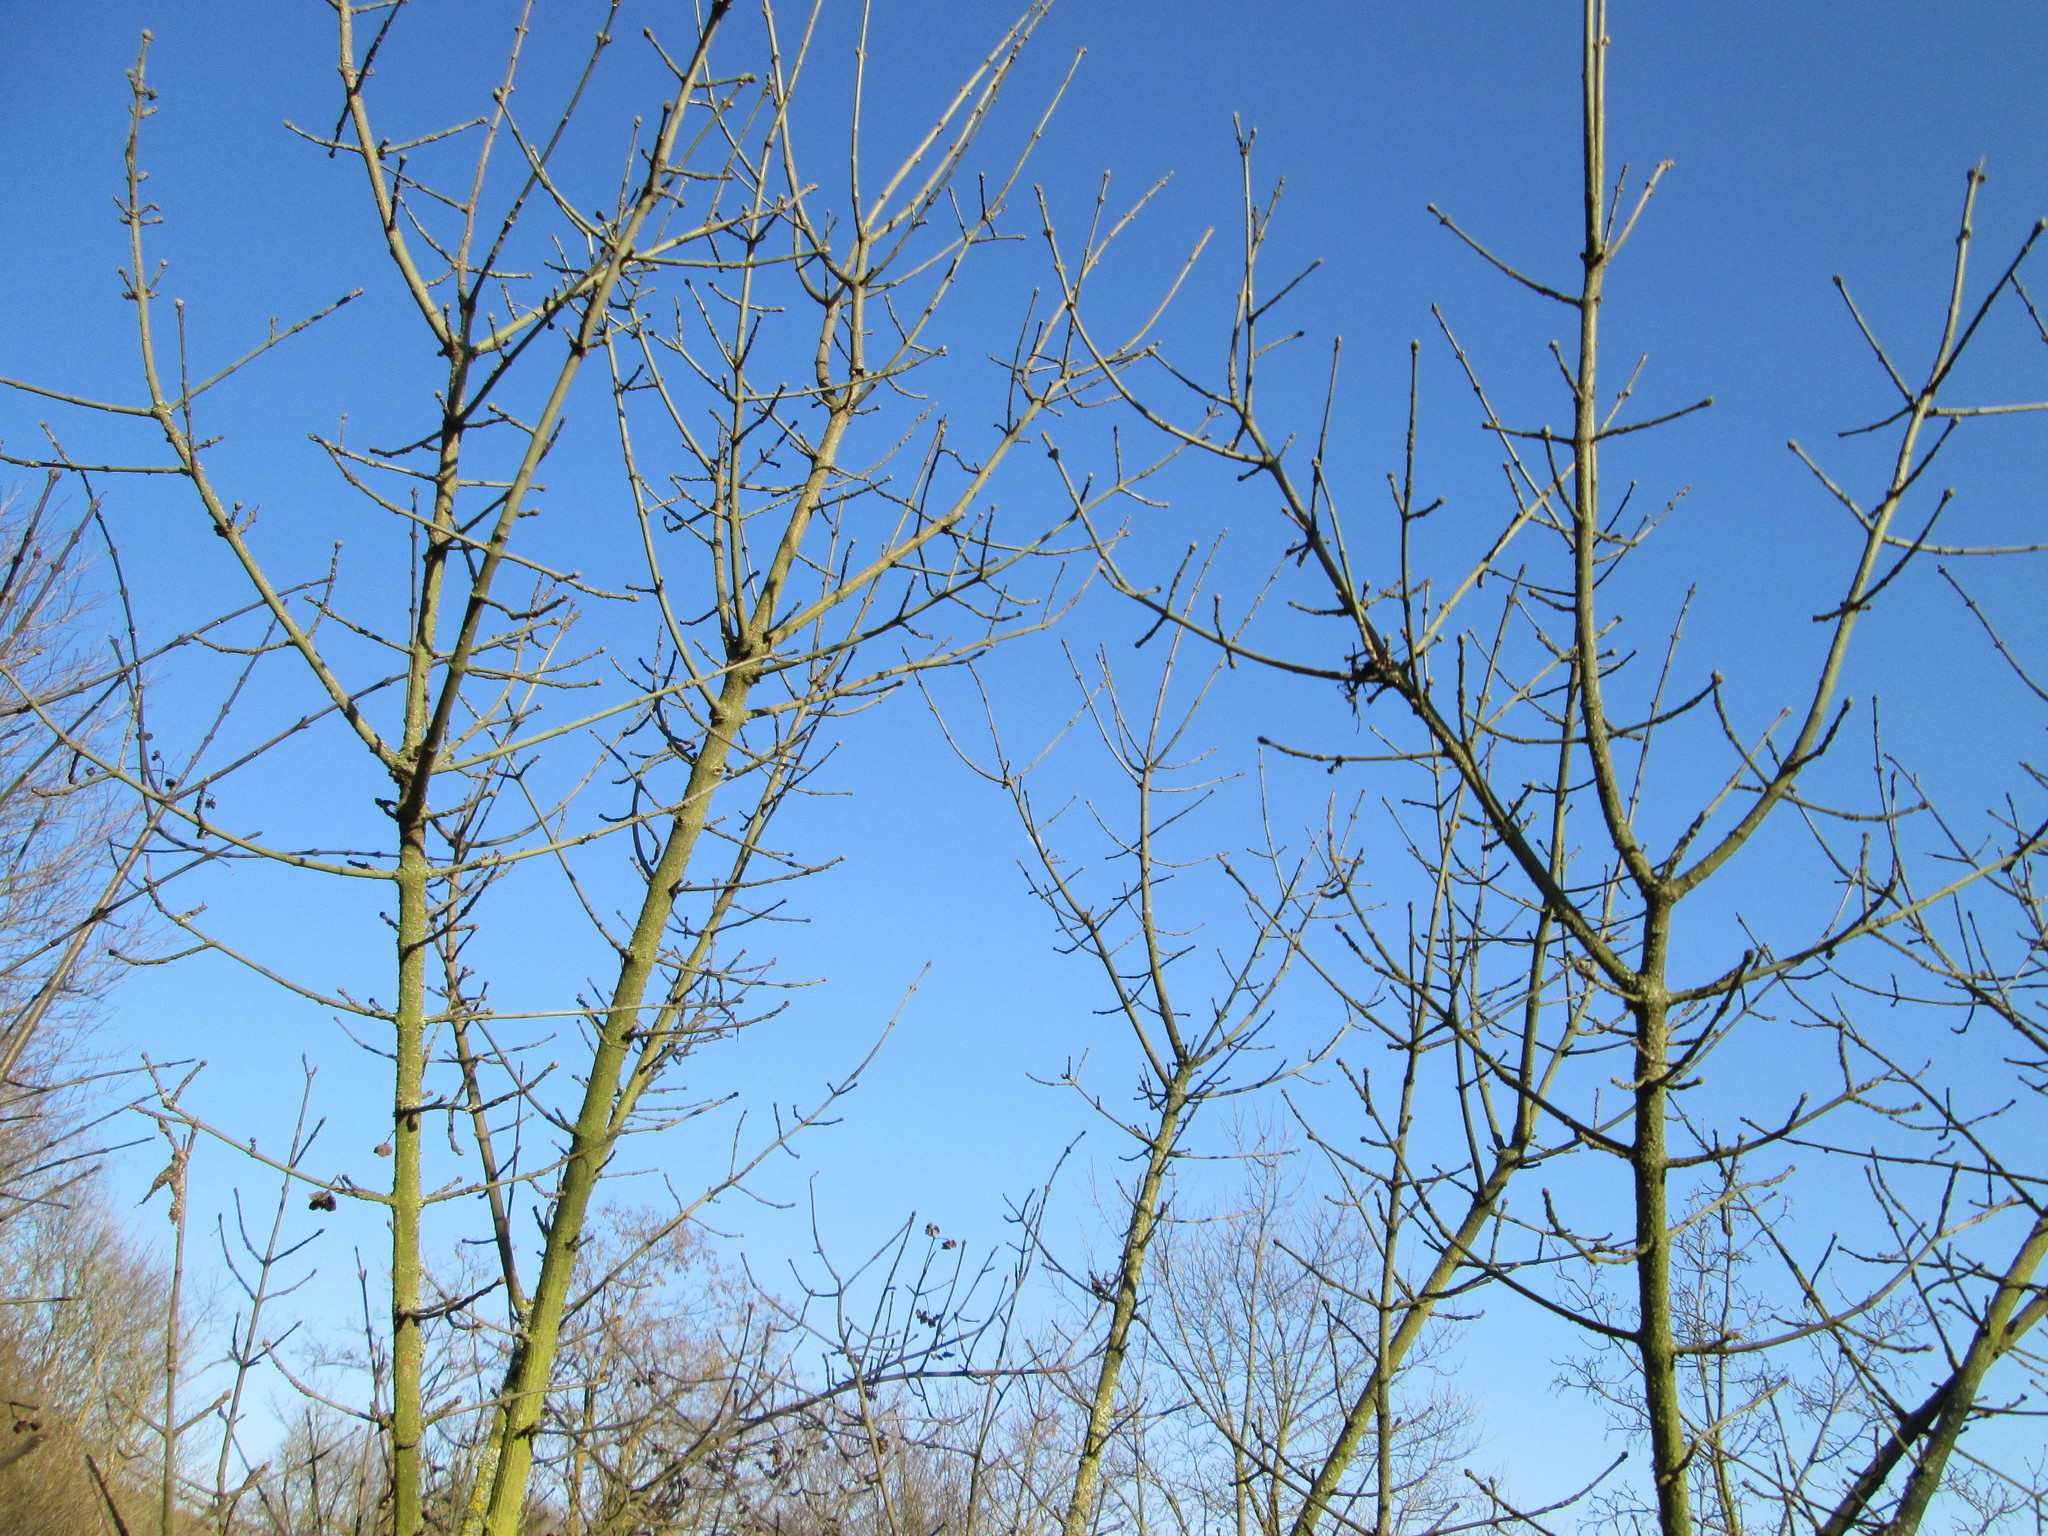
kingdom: Plantae
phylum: Tracheophyta
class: Magnoliopsida
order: Celastrales
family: Celastraceae
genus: Euonymus
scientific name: Euonymus europaeus
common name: Spindle
